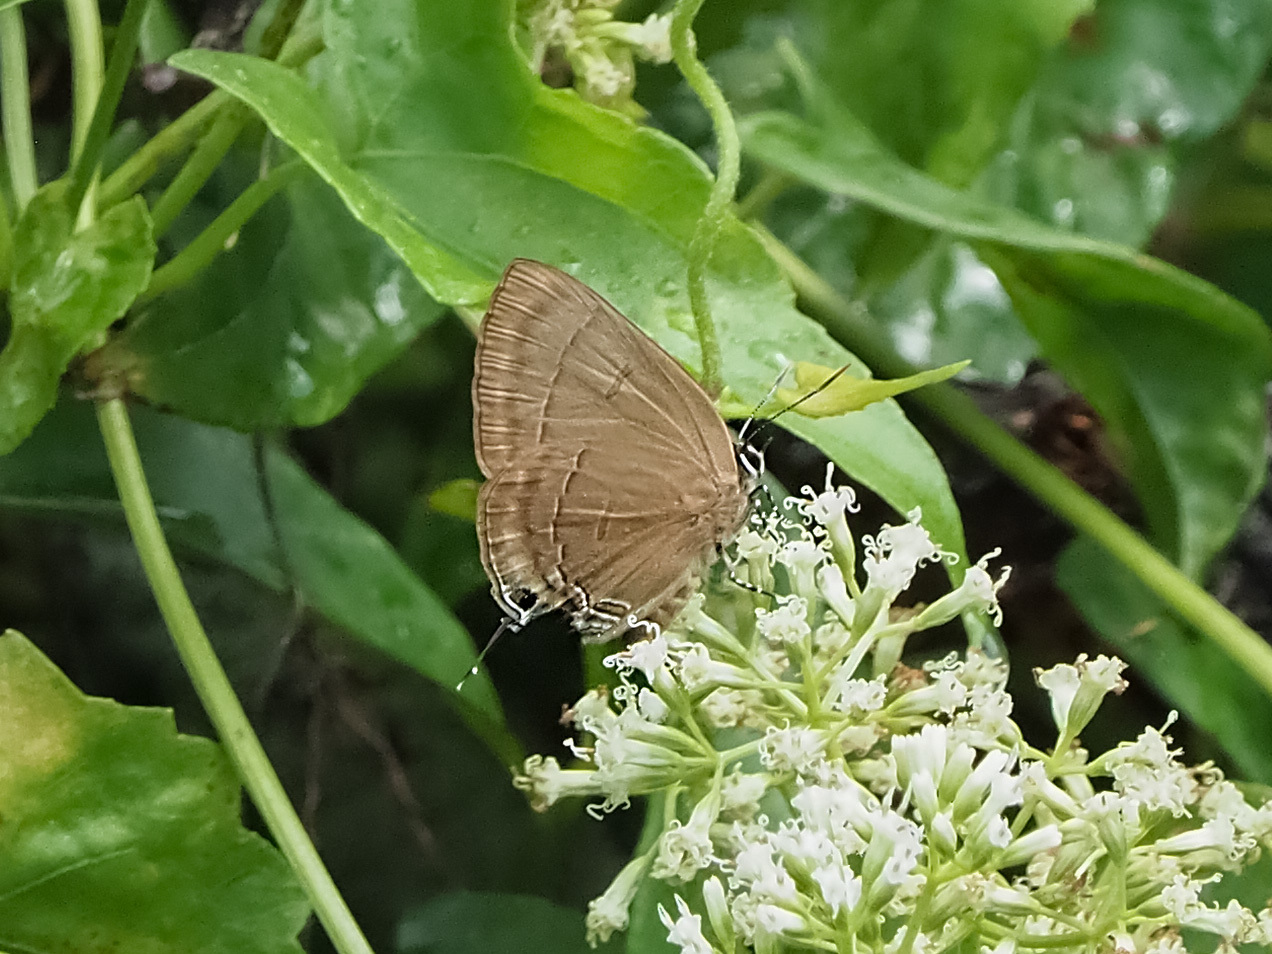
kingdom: Animalia
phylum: Arthropoda
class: Insecta
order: Lepidoptera
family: Lycaenidae
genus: Rapala
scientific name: Rapala manea
